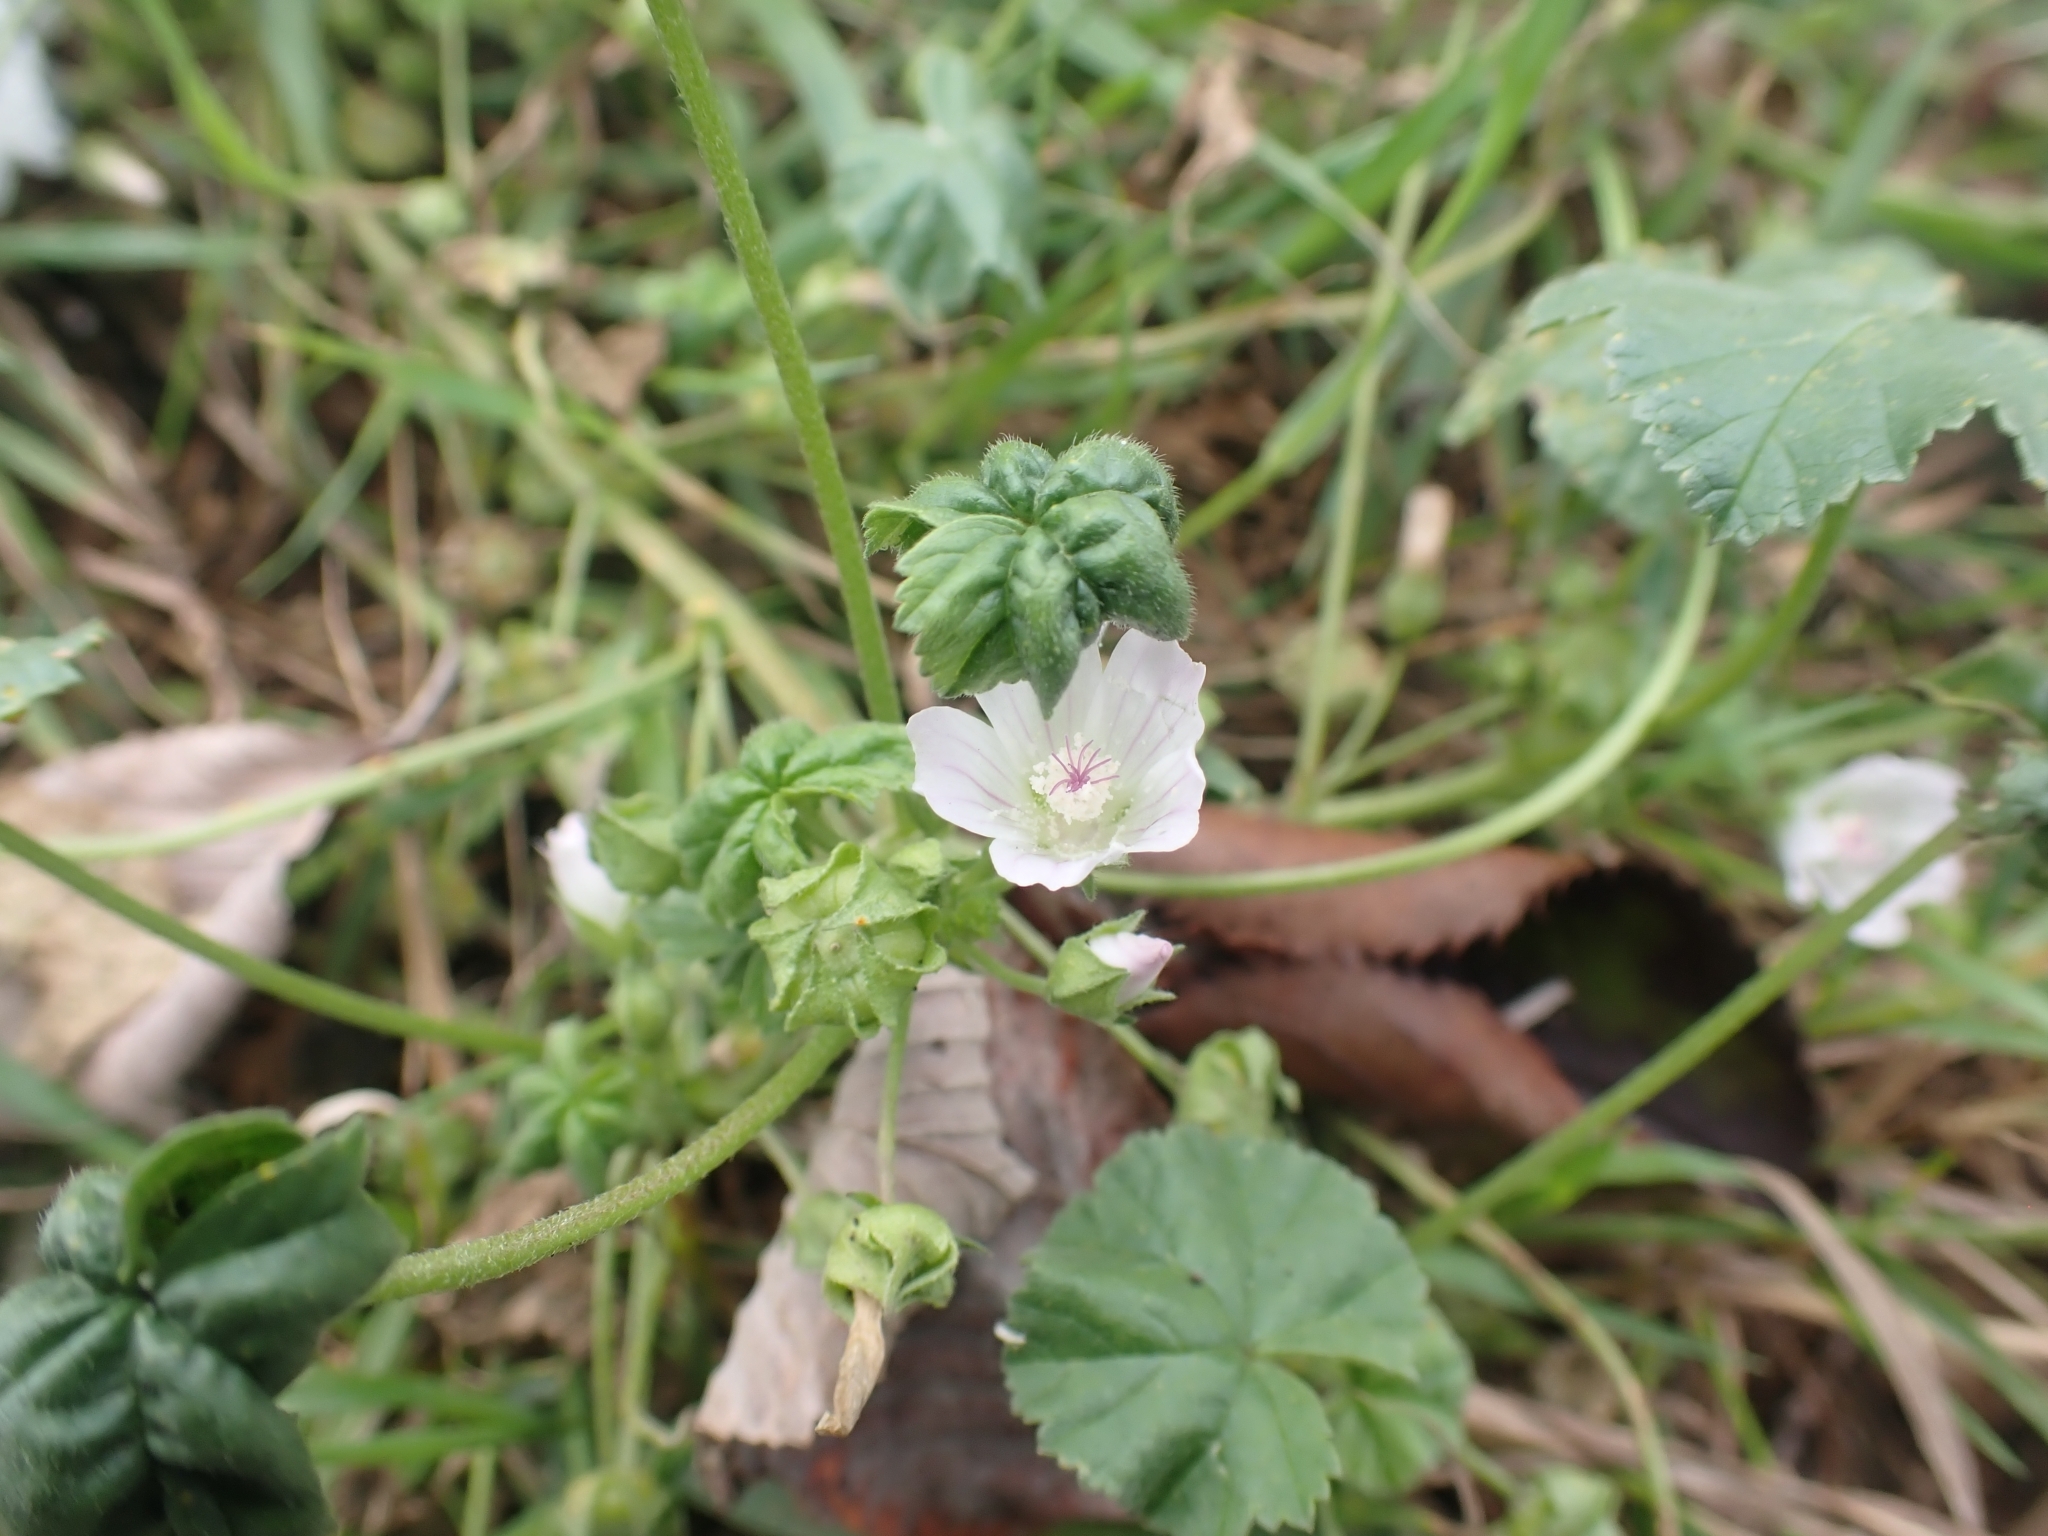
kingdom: Plantae
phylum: Tracheophyta
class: Magnoliopsida
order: Malvales
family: Malvaceae
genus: Malva
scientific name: Malva neglecta
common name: Common mallow
